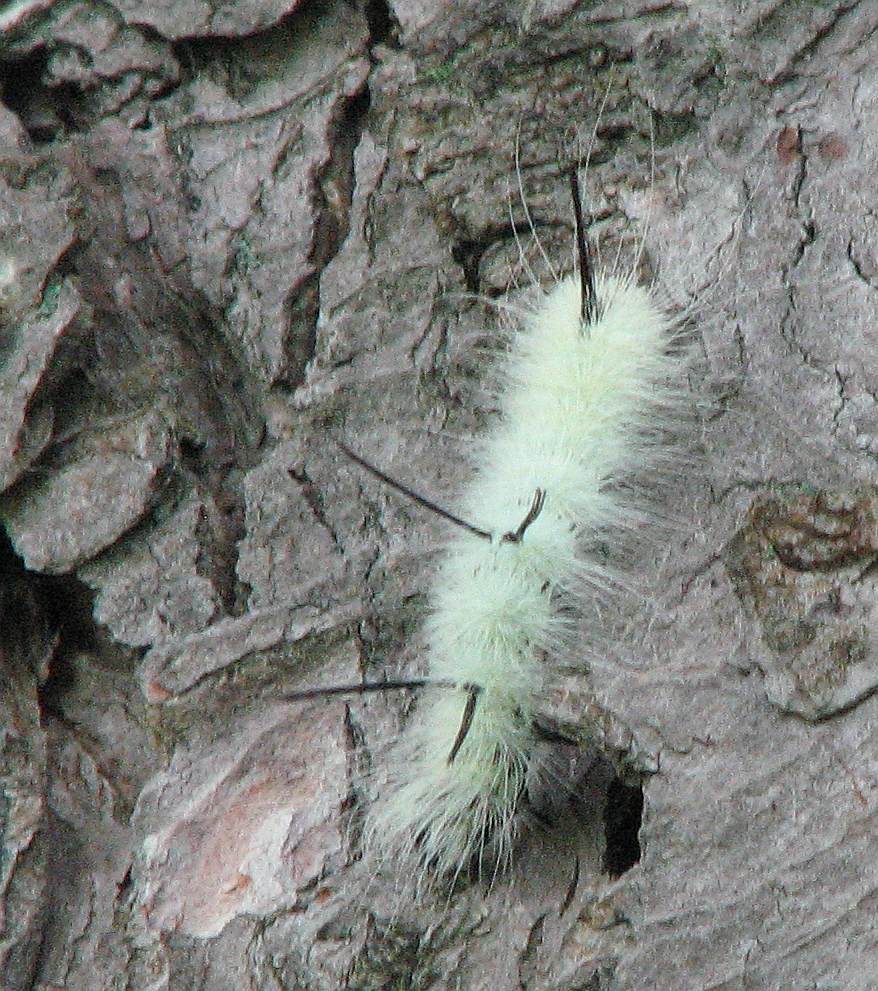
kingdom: Animalia
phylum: Arthropoda
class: Insecta
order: Lepidoptera
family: Noctuidae
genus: Acronicta
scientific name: Acronicta americana
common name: American dagger
